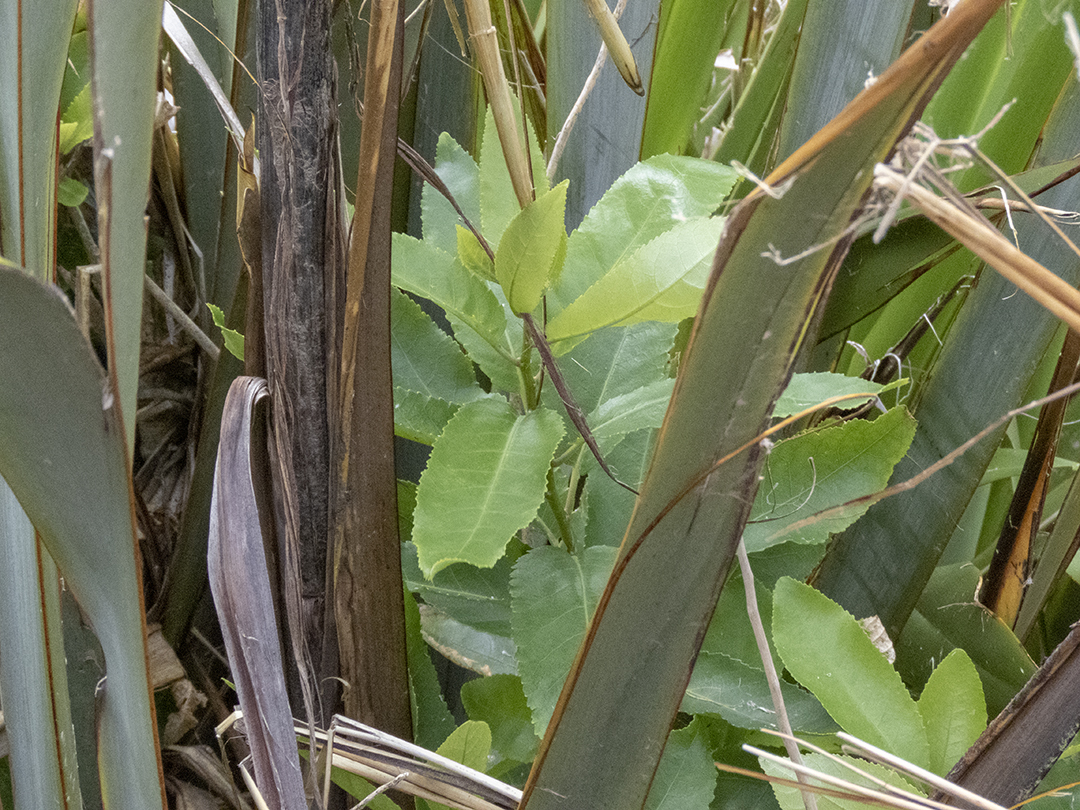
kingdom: Plantae
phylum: Tracheophyta
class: Magnoliopsida
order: Malpighiales
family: Violaceae
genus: Melicytus
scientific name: Melicytus ramiflorus
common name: Mahoe
